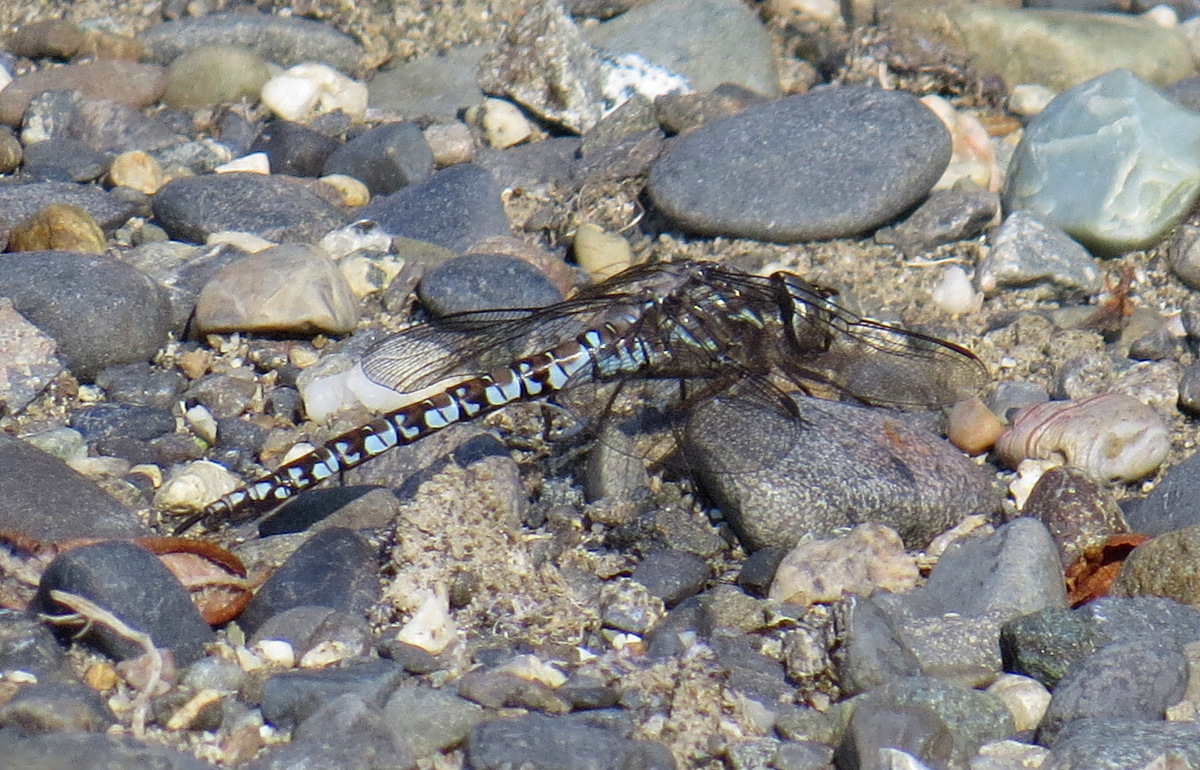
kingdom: Animalia
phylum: Arthropoda
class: Insecta
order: Odonata
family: Aeshnidae
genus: Aeshna
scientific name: Aeshna sitchensis
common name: Zigzag darner
